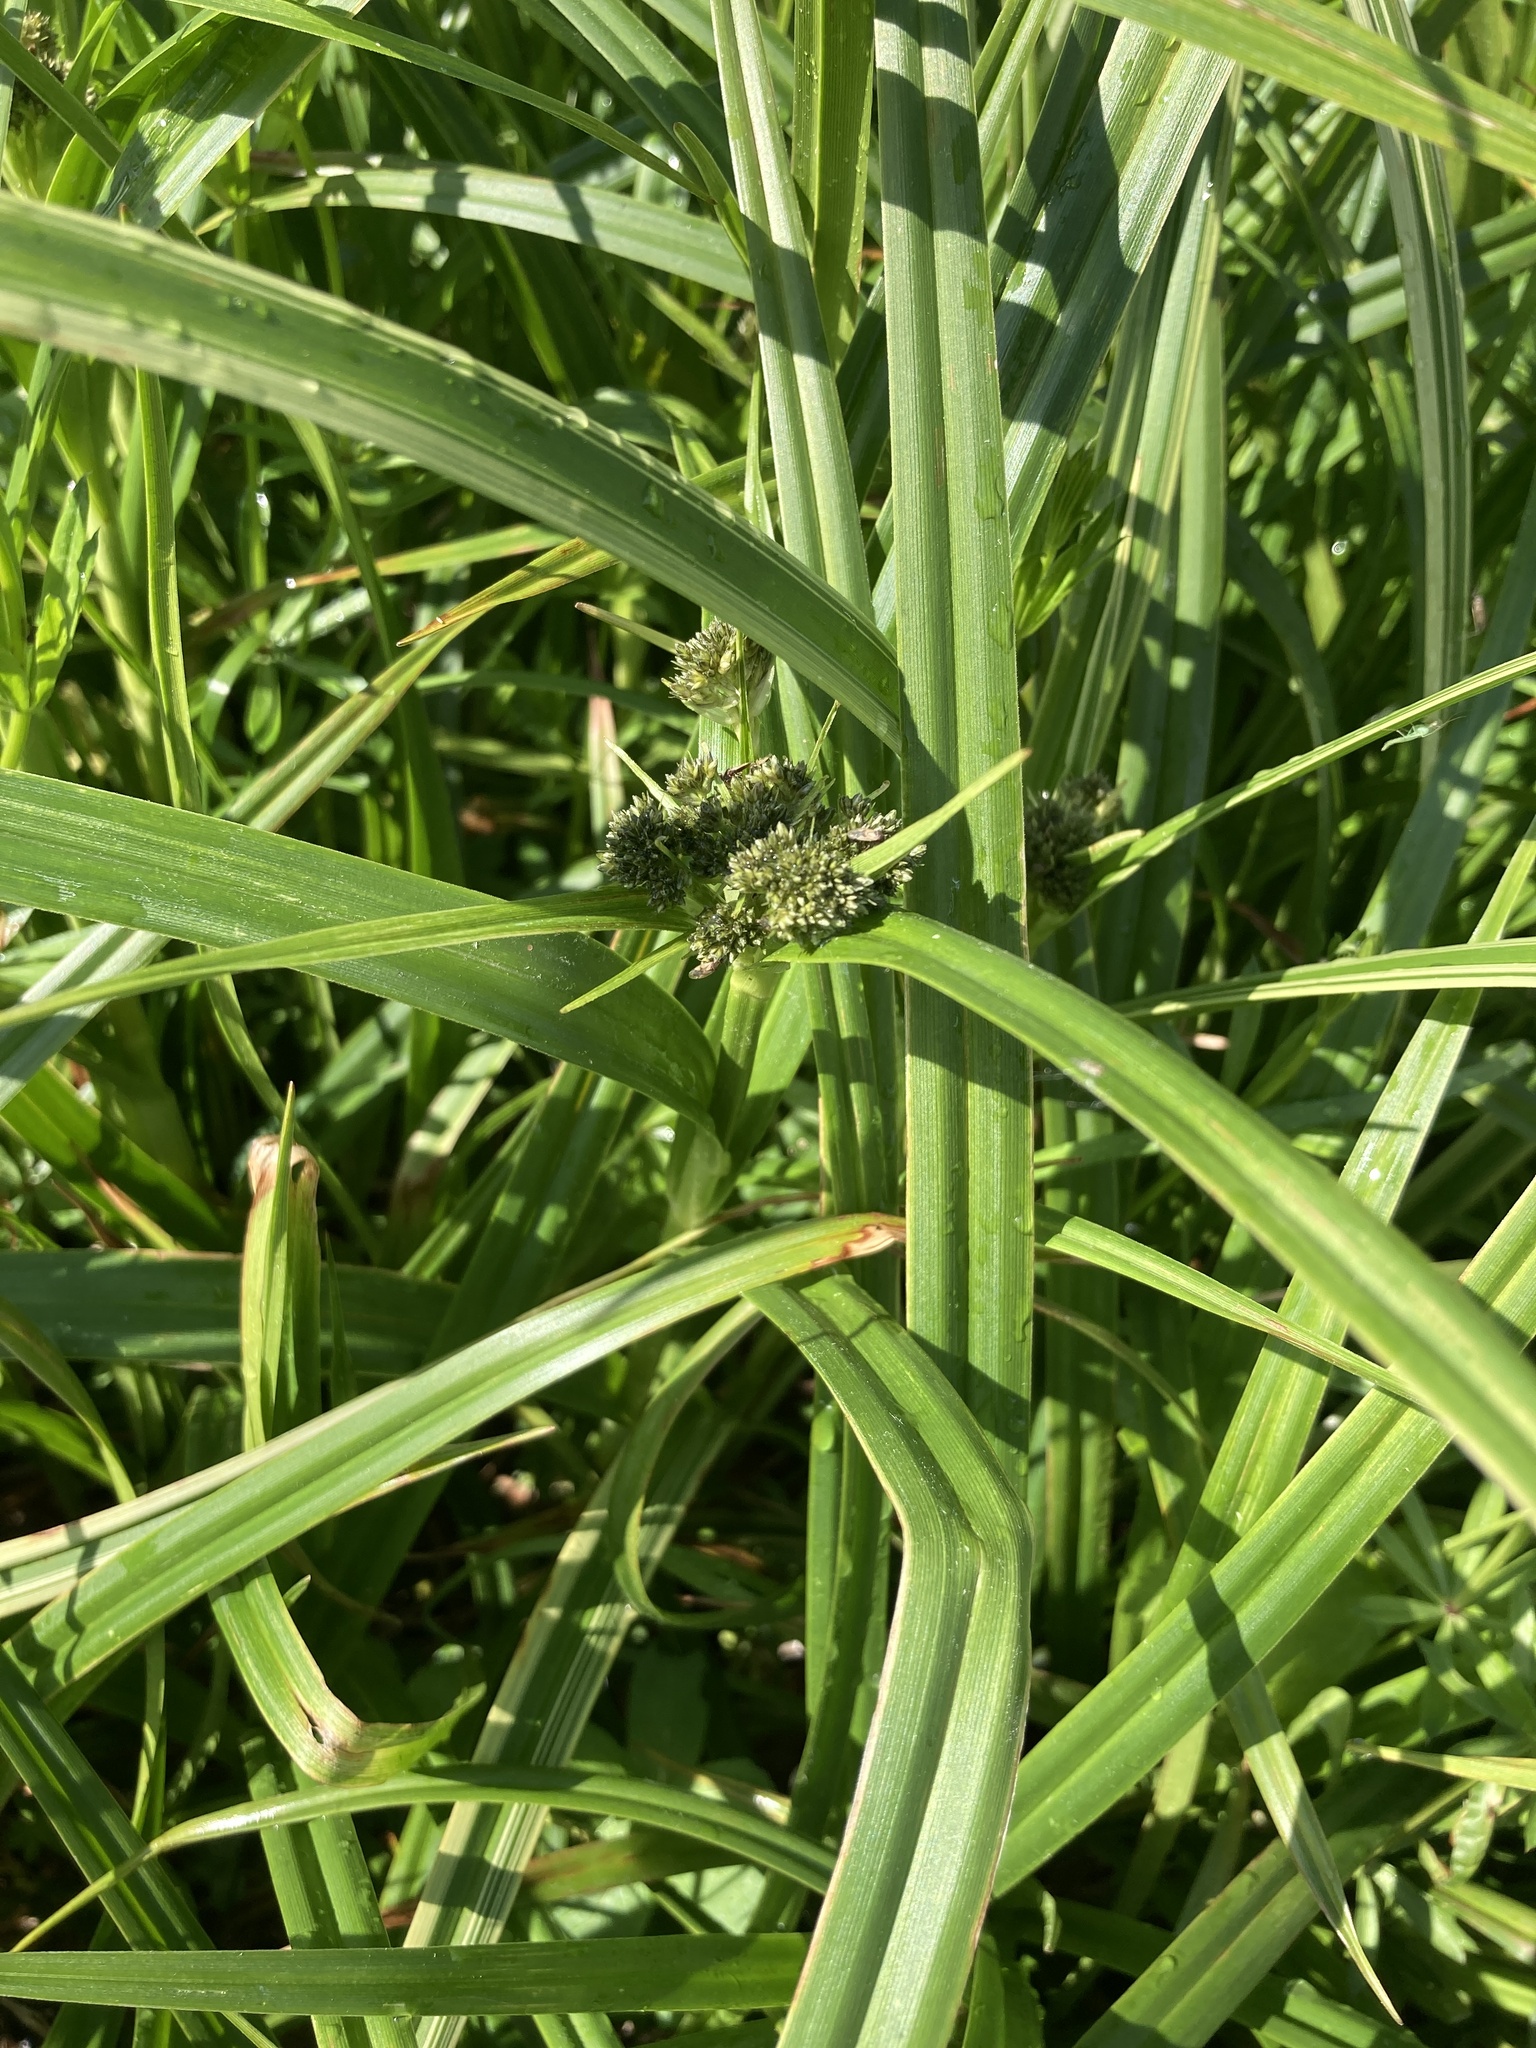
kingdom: Plantae
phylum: Tracheophyta
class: Liliopsida
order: Poales
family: Cyperaceae
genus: Scirpus
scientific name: Scirpus sylvaticus
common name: Wood club-rush
